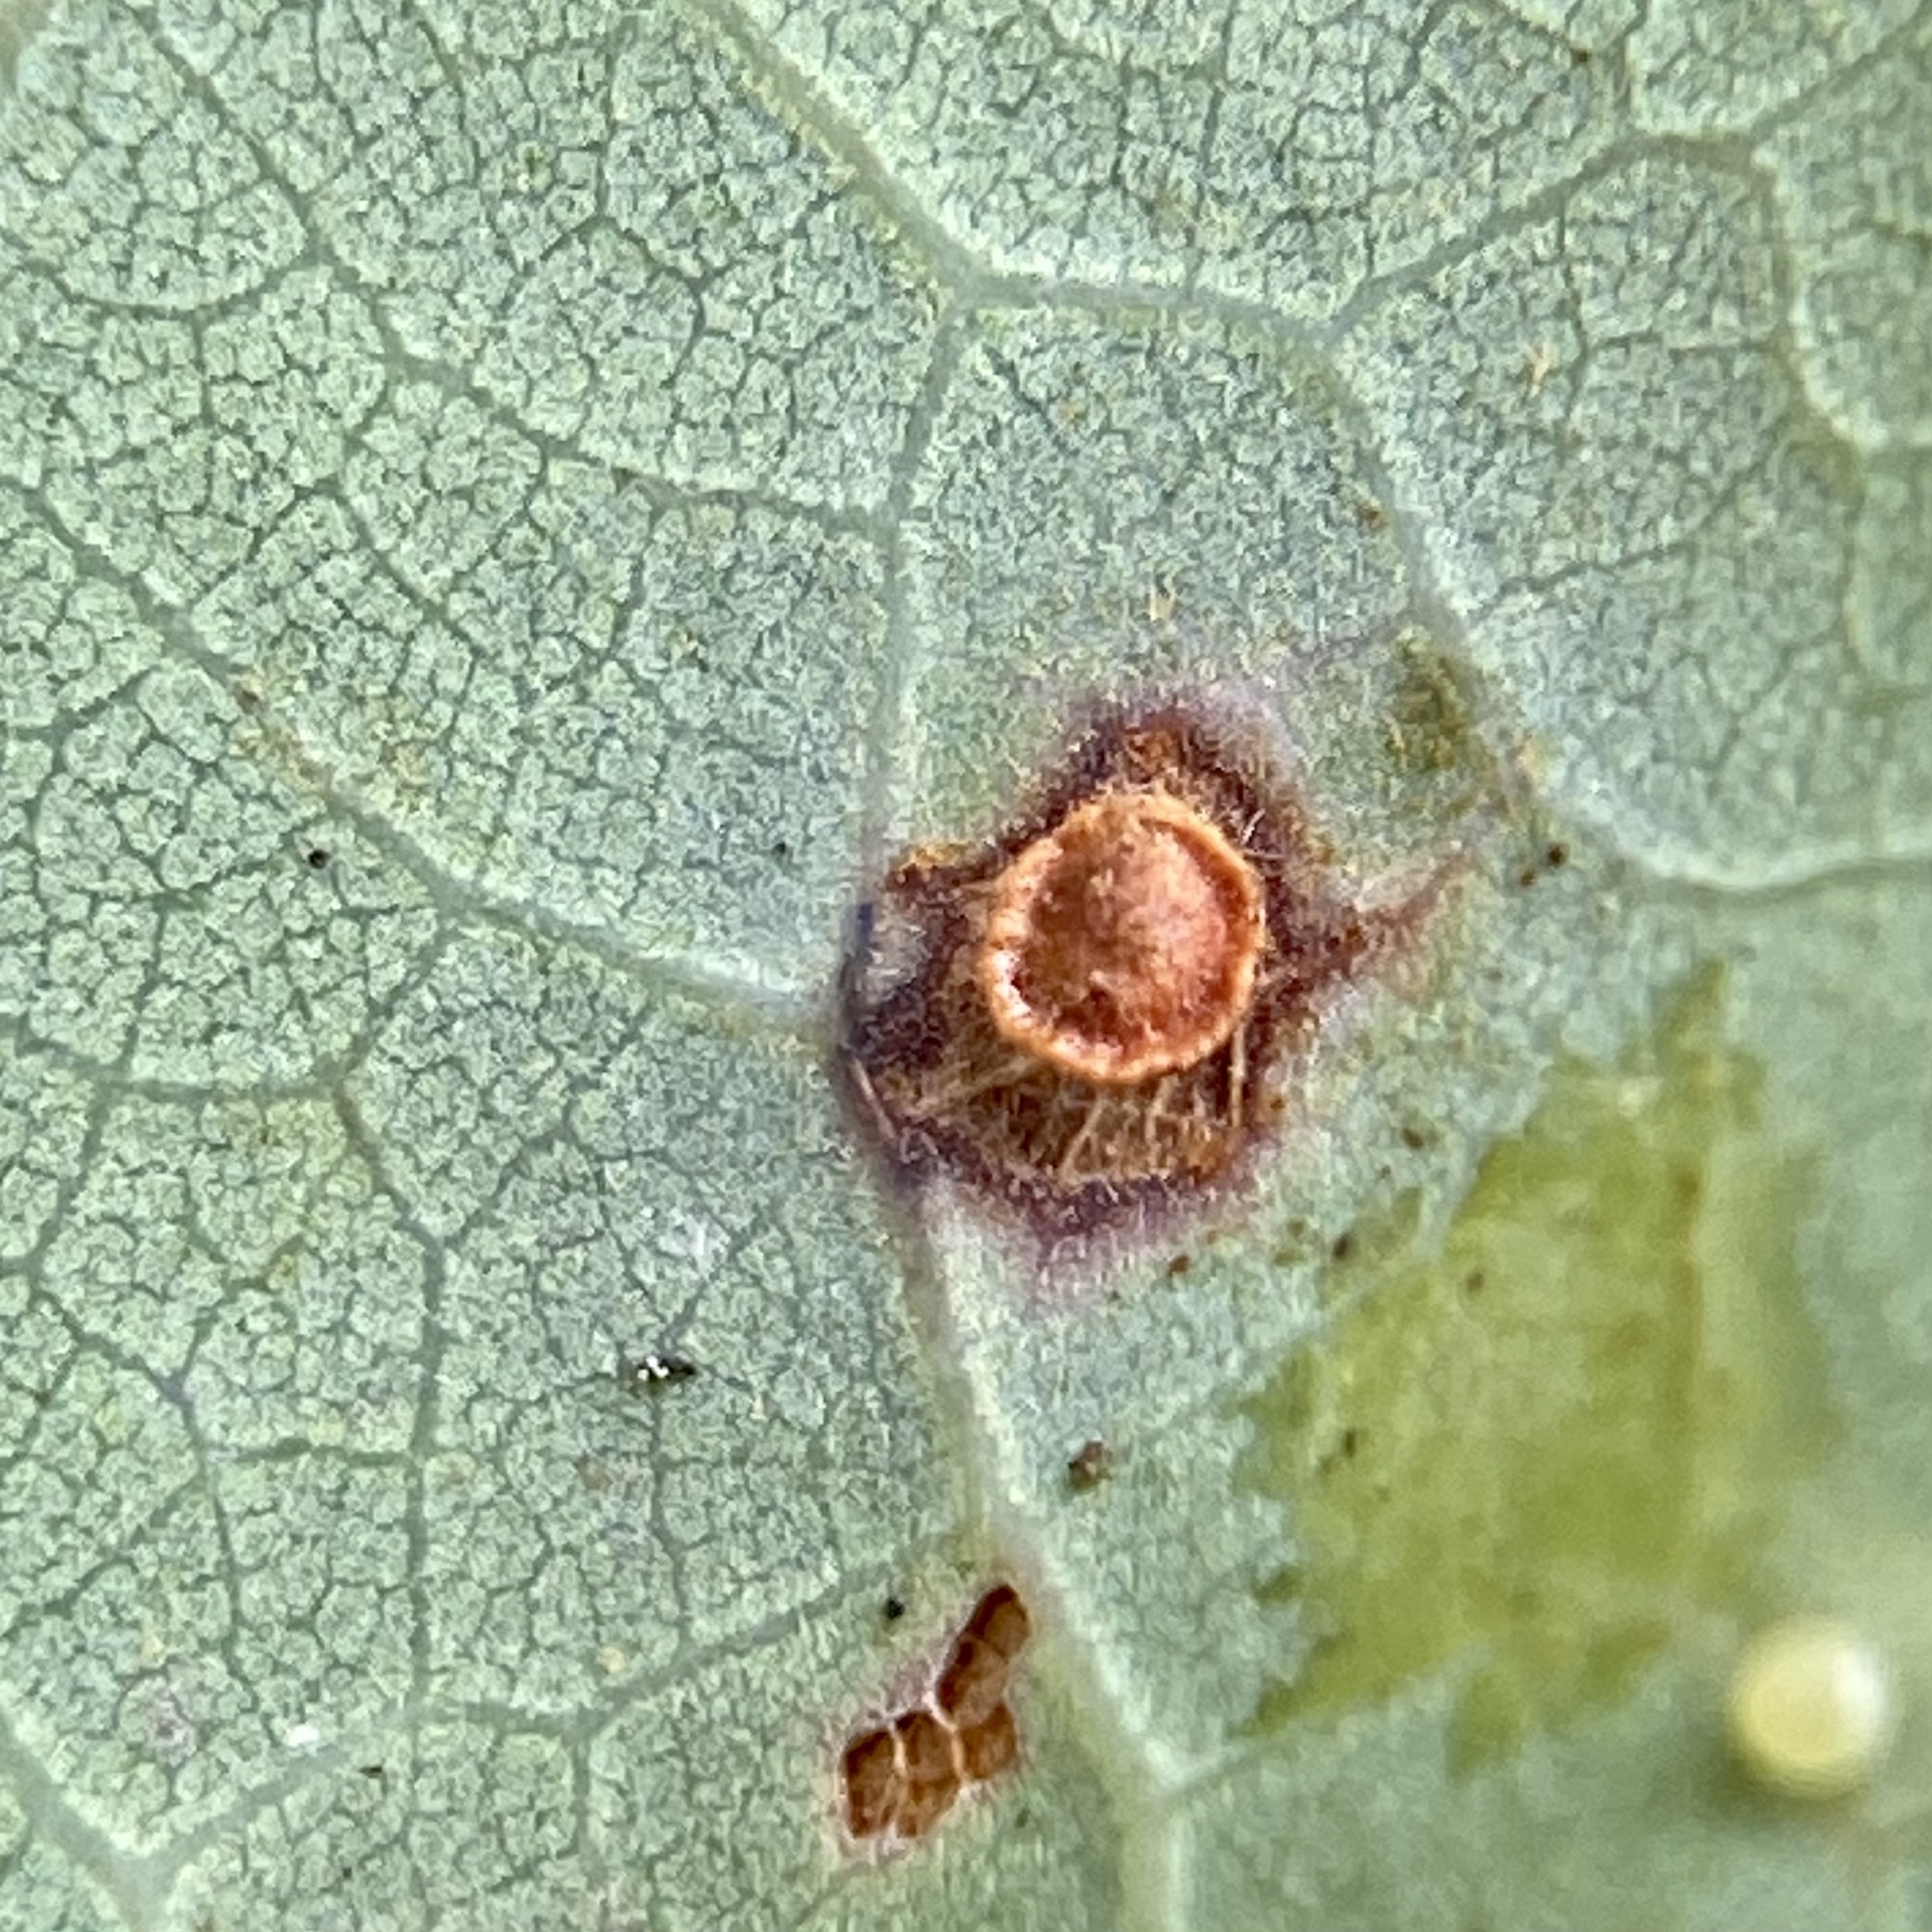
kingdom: Animalia
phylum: Arthropoda
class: Insecta
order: Hymenoptera
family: Cynipidae
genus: Neuroterus
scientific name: Neuroterus
